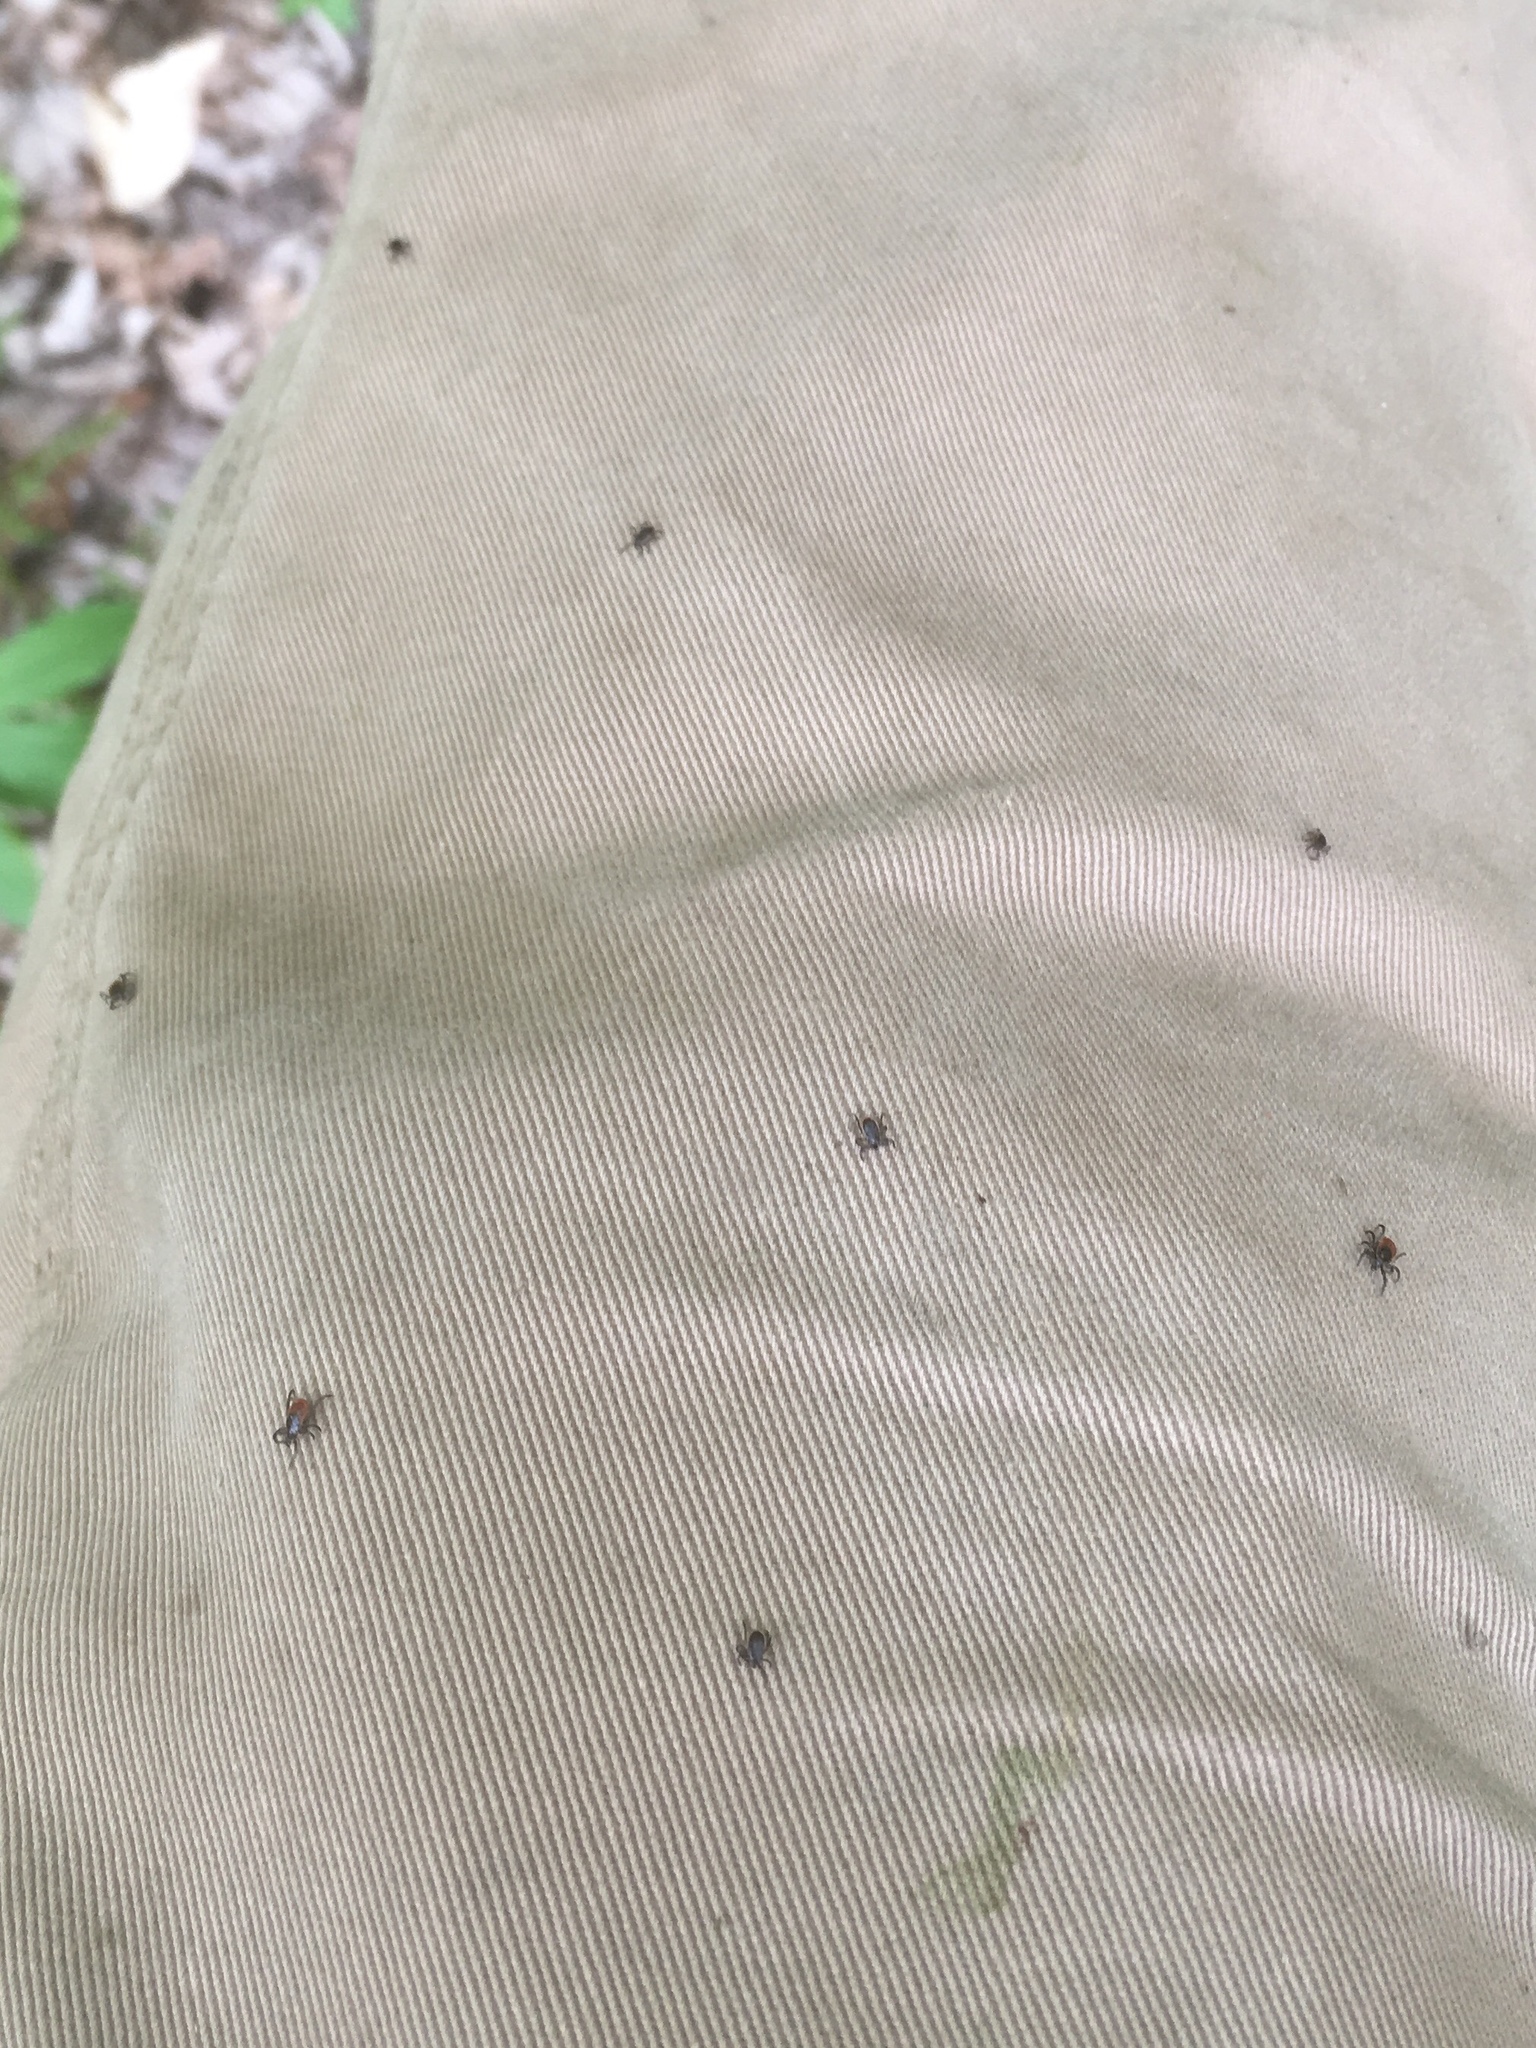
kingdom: Animalia
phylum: Arthropoda
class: Arachnida
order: Ixodida
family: Ixodidae
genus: Ixodes
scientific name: Ixodes scapularis
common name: Black legged tick
